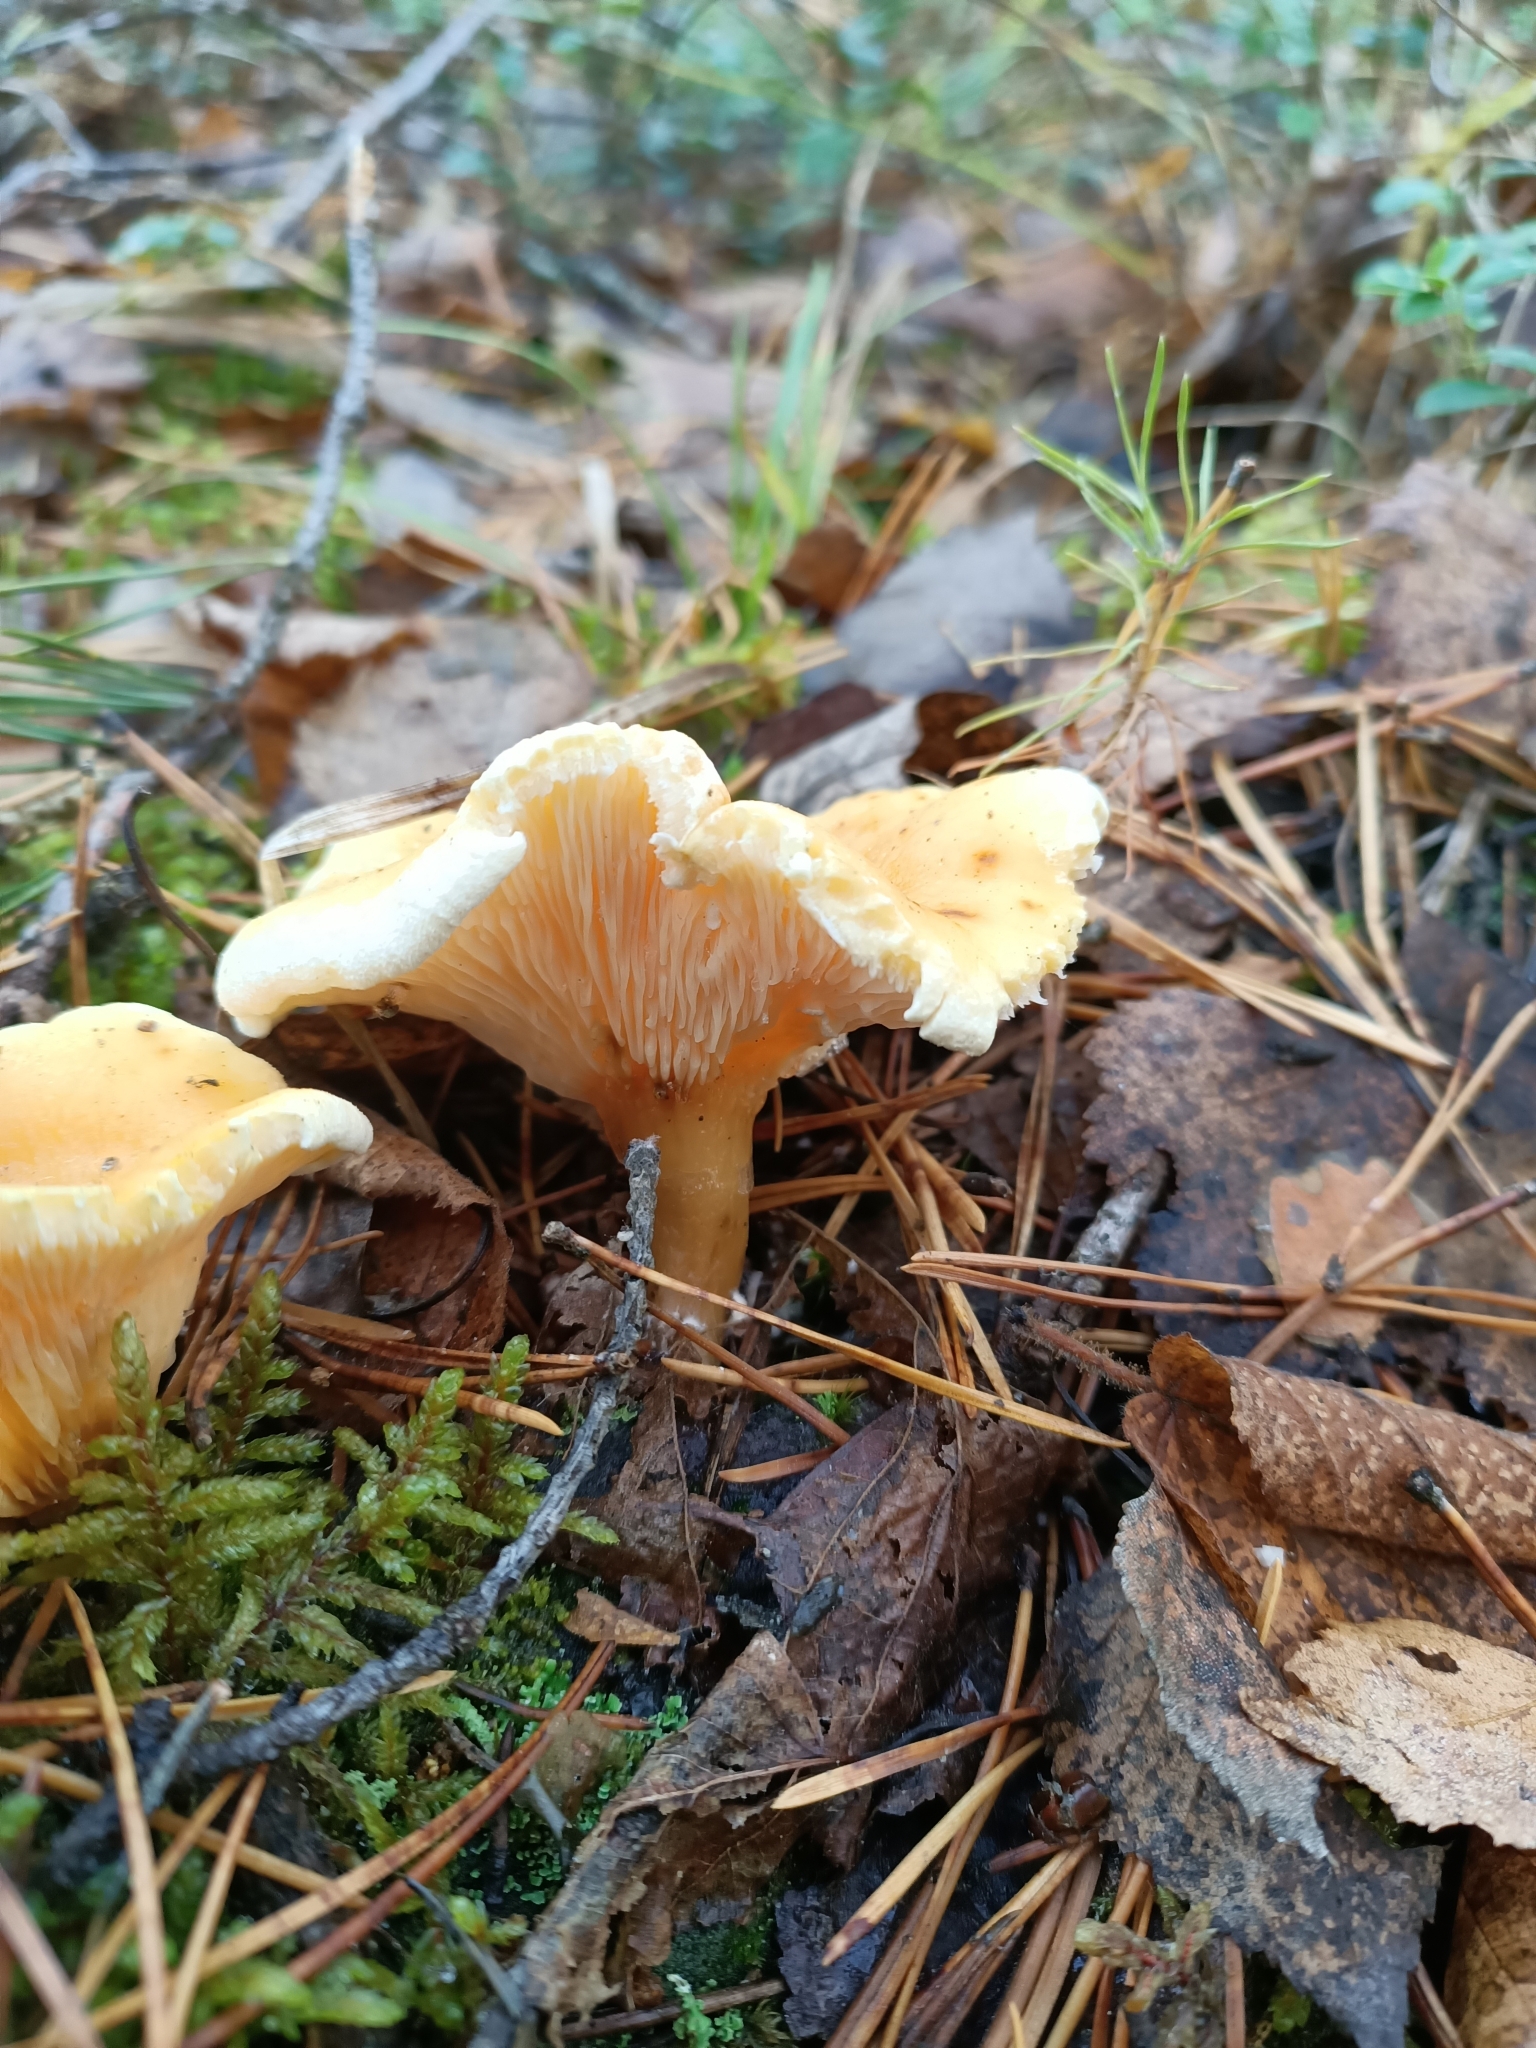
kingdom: Fungi
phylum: Basidiomycota
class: Agaricomycetes
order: Boletales
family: Hygrophoropsidaceae
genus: Hygrophoropsis
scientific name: Hygrophoropsis aurantiaca
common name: False chanterelle
